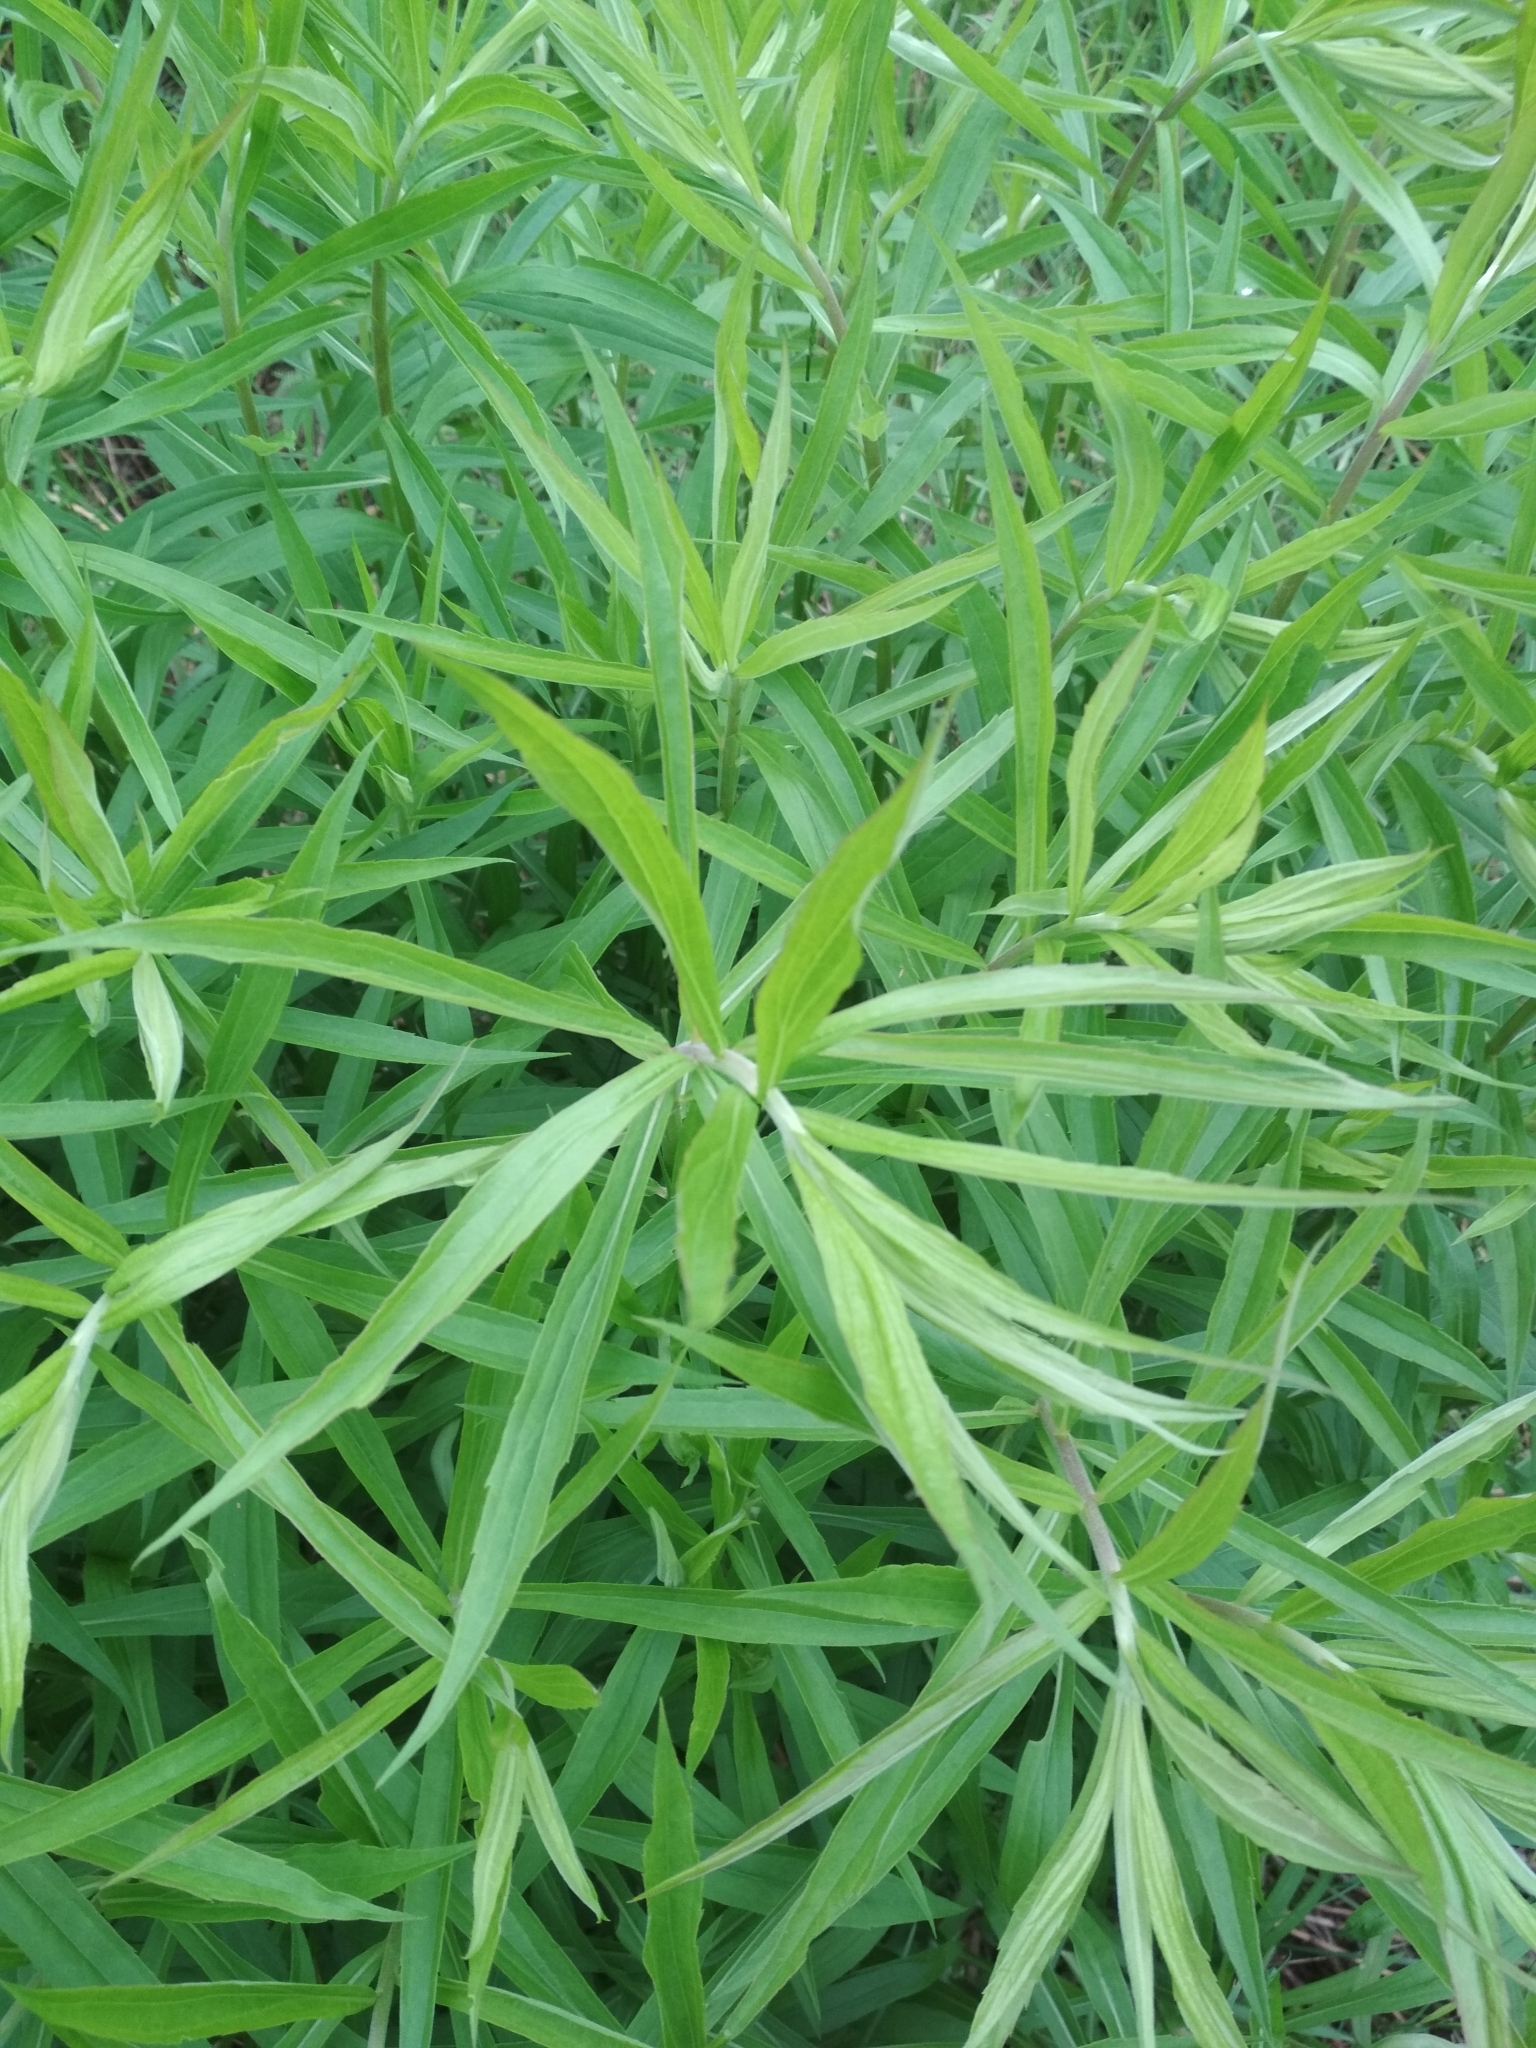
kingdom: Plantae
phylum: Tracheophyta
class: Magnoliopsida
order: Asterales
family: Asteraceae
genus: Solidago
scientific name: Solidago canadensis
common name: Canada goldenrod
